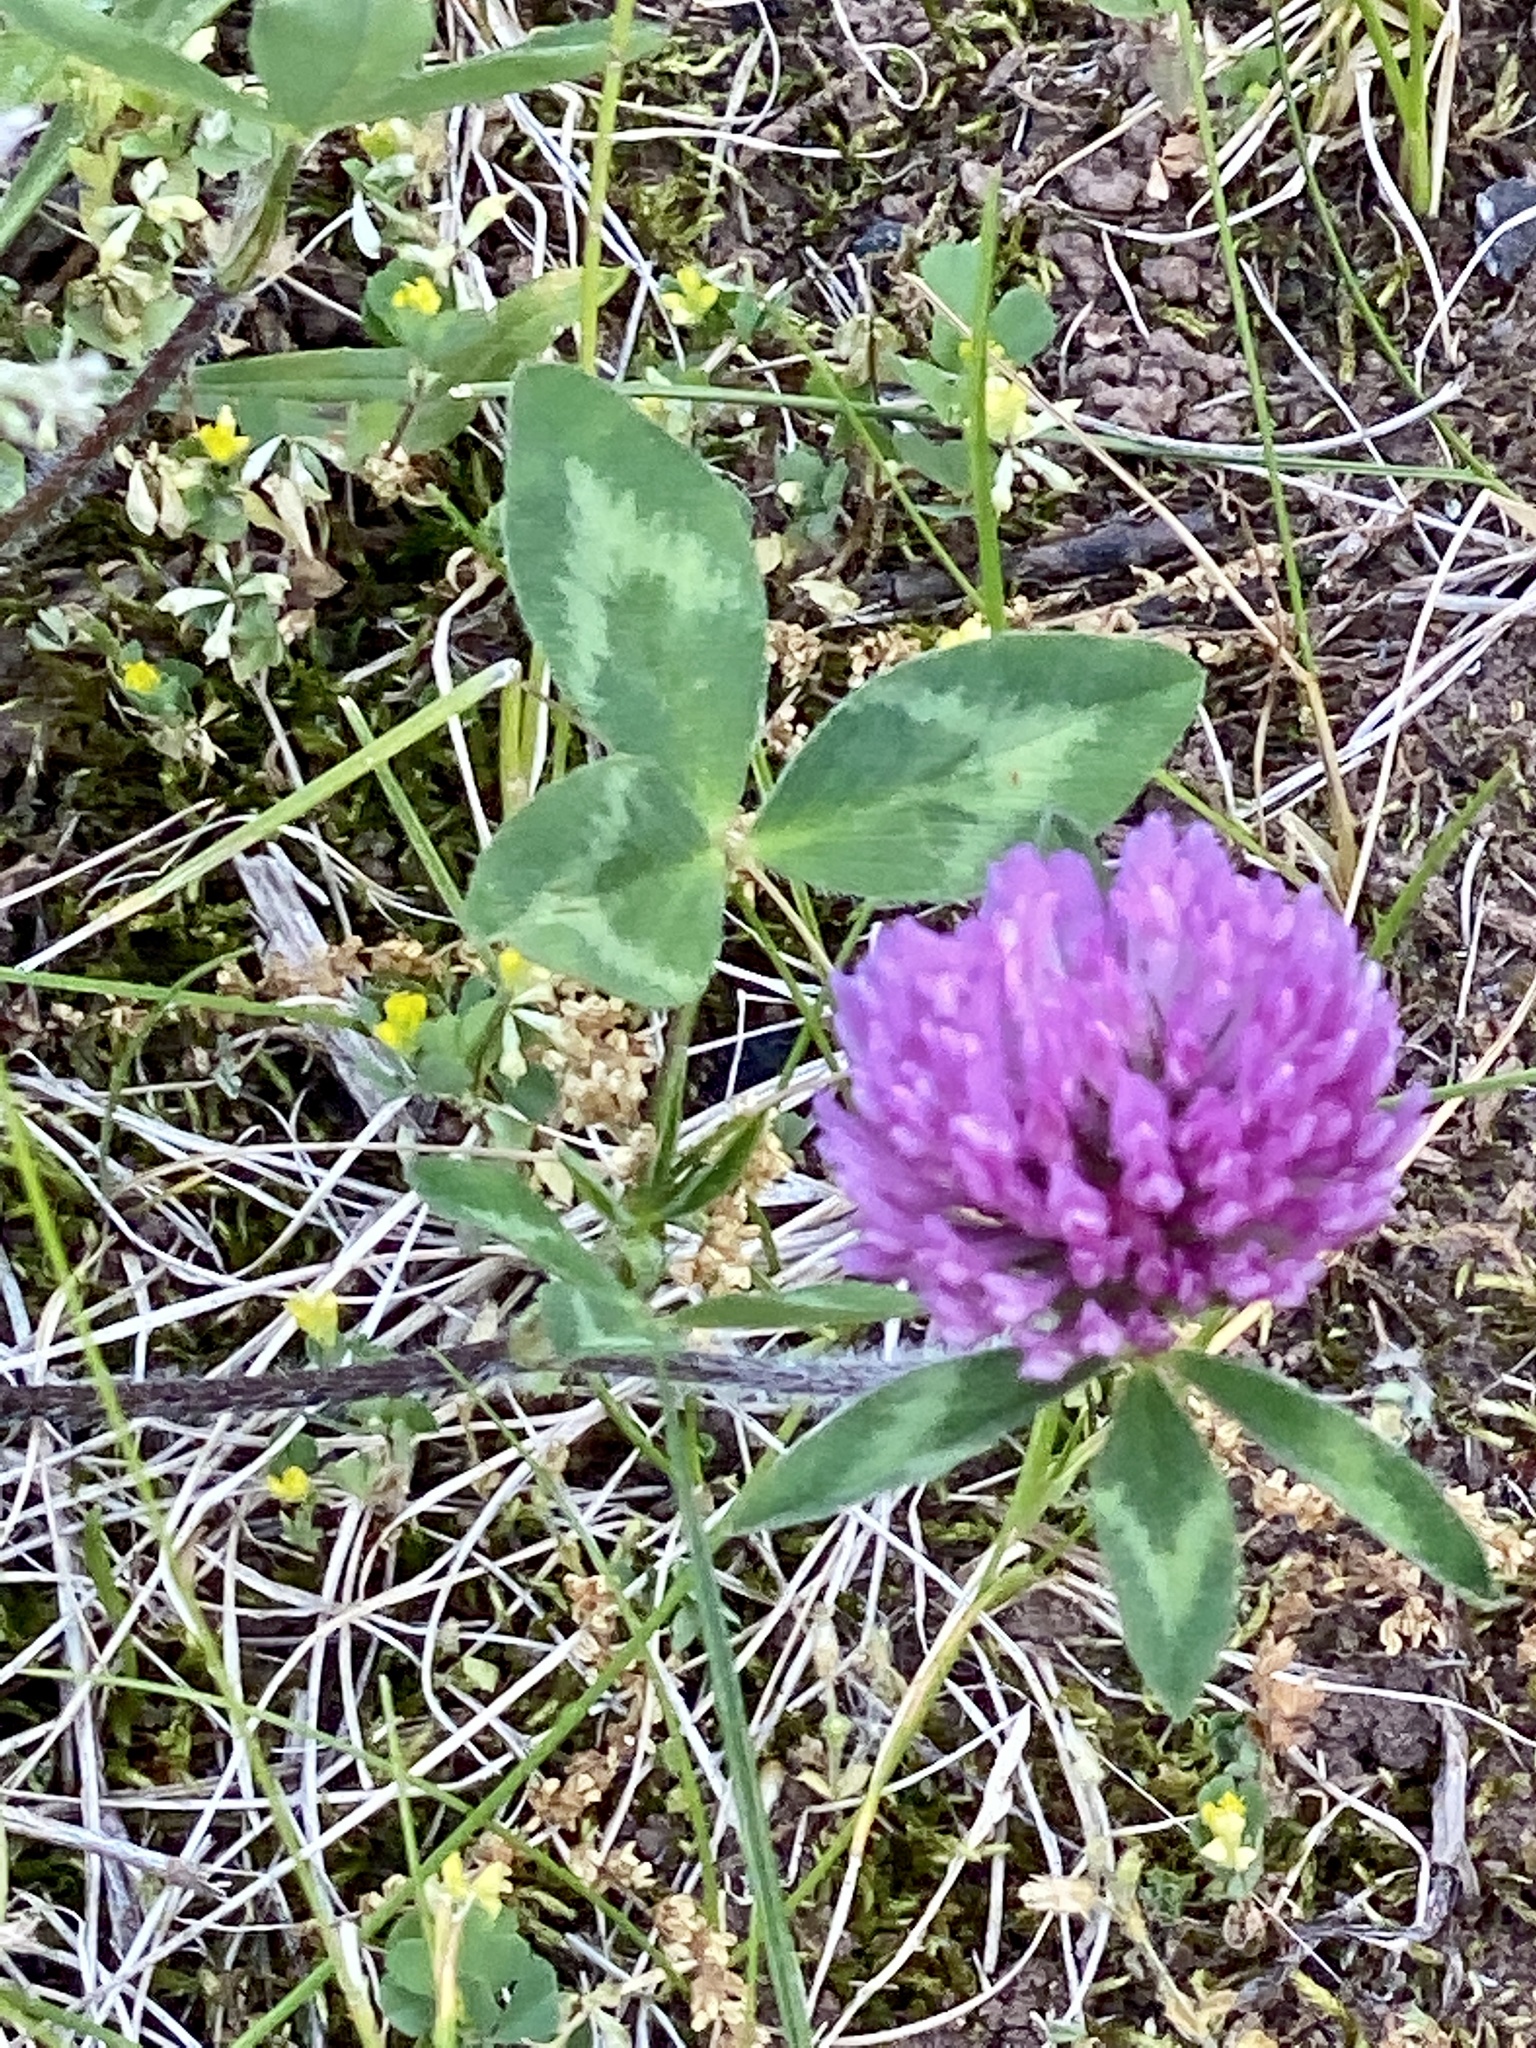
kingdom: Plantae
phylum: Tracheophyta
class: Magnoliopsida
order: Fabales
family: Fabaceae
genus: Trifolium
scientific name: Trifolium pratense
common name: Red clover
